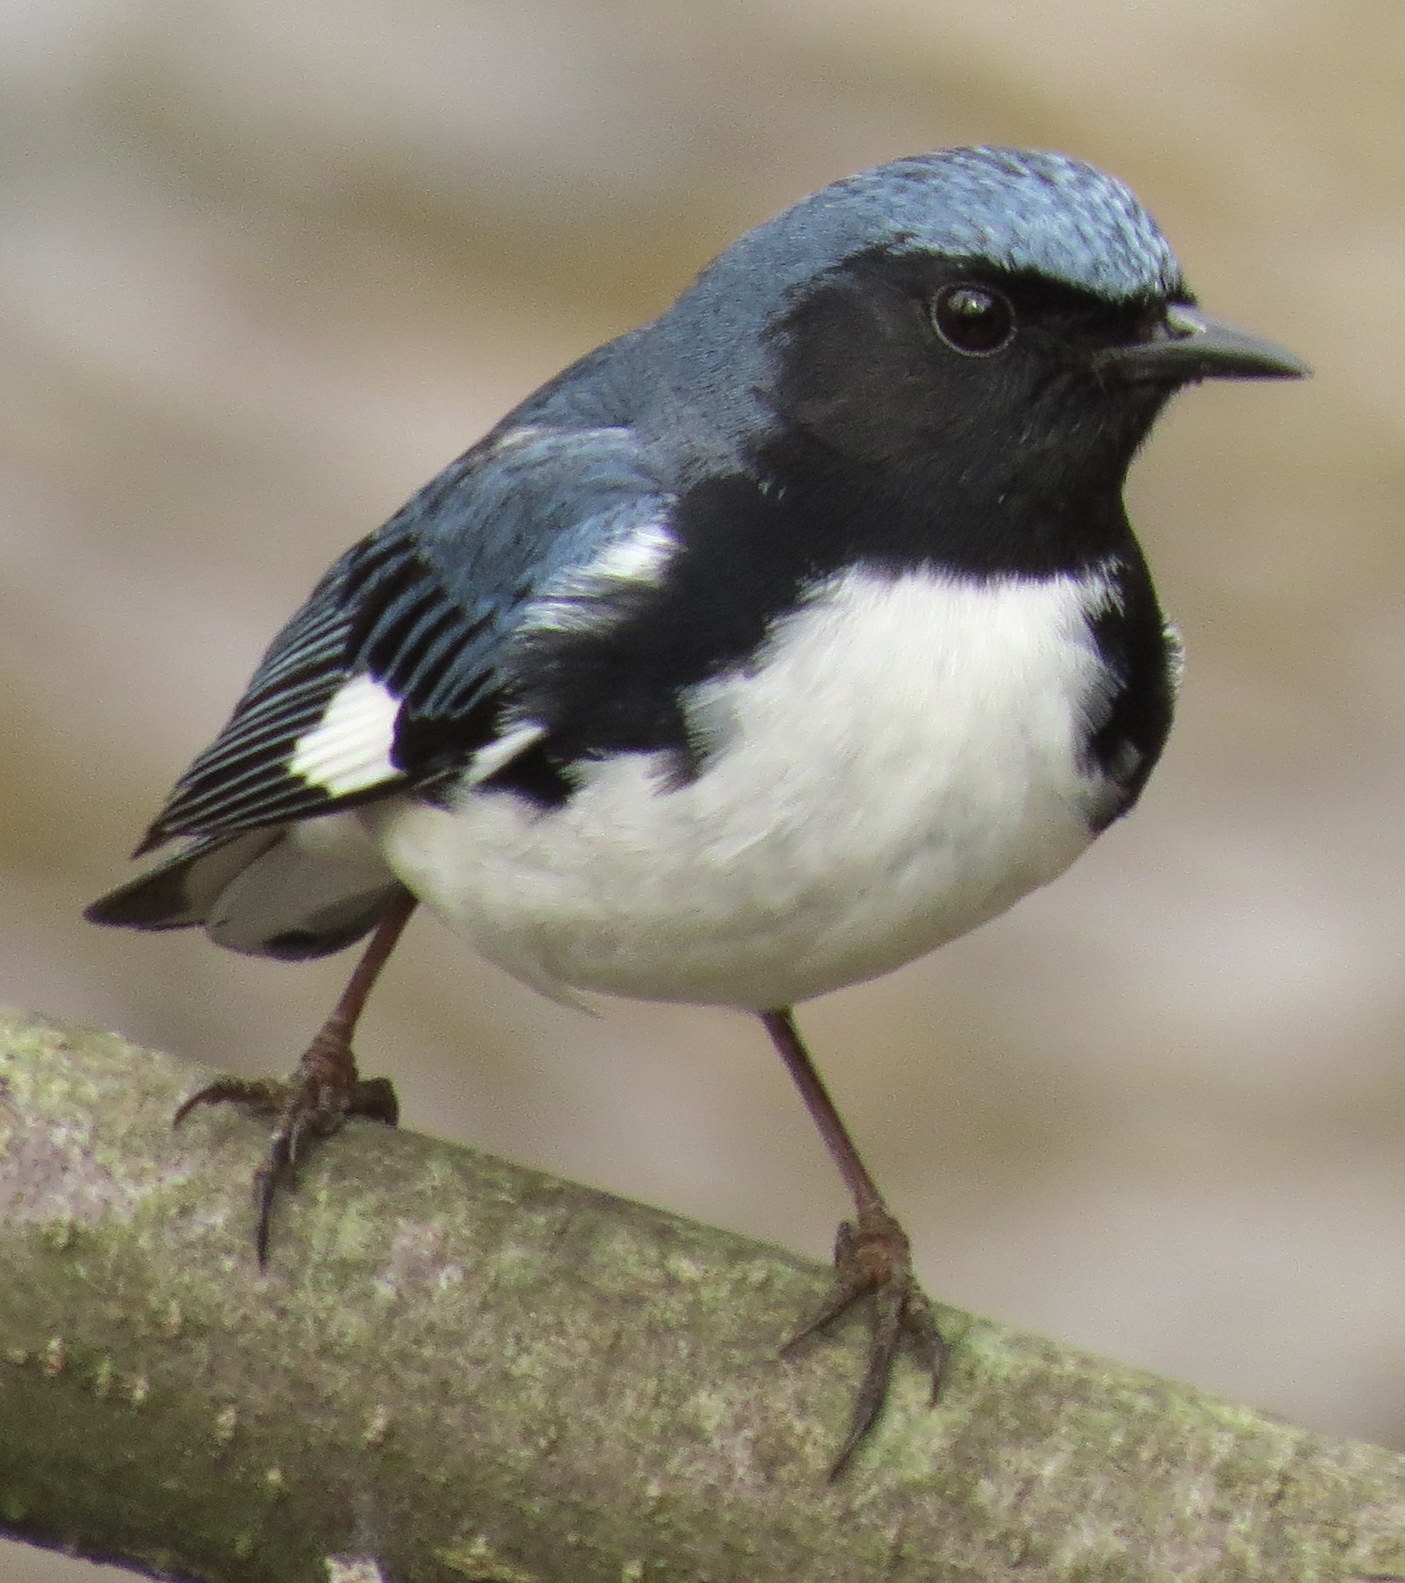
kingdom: Animalia
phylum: Chordata
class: Aves
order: Passeriformes
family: Parulidae
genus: Setophaga
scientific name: Setophaga caerulescens
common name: Black-throated blue warbler
